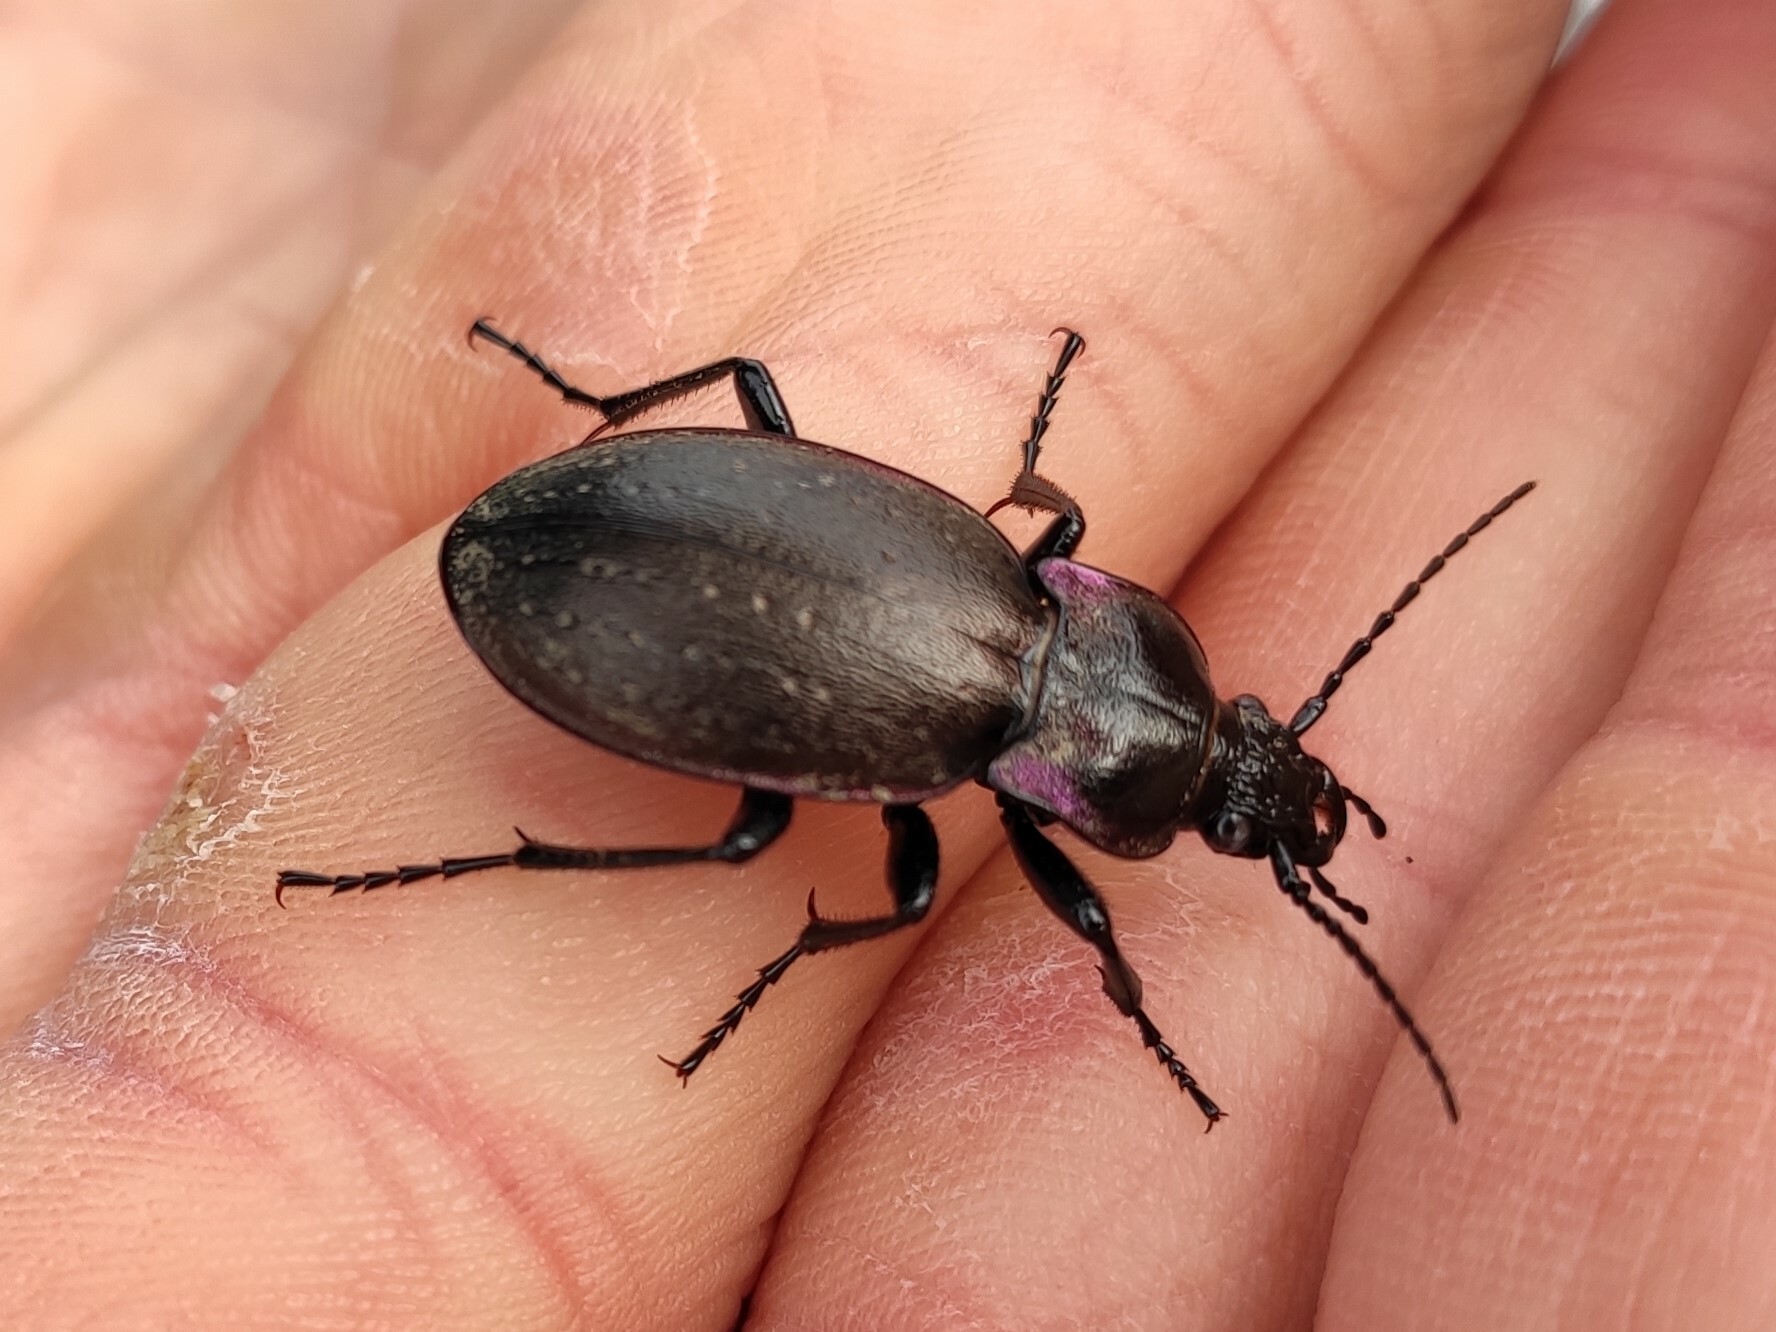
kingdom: Animalia
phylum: Arthropoda
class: Insecta
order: Coleoptera
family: Carabidae
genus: Carabus
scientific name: Carabus nemoralis
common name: European ground beetle
